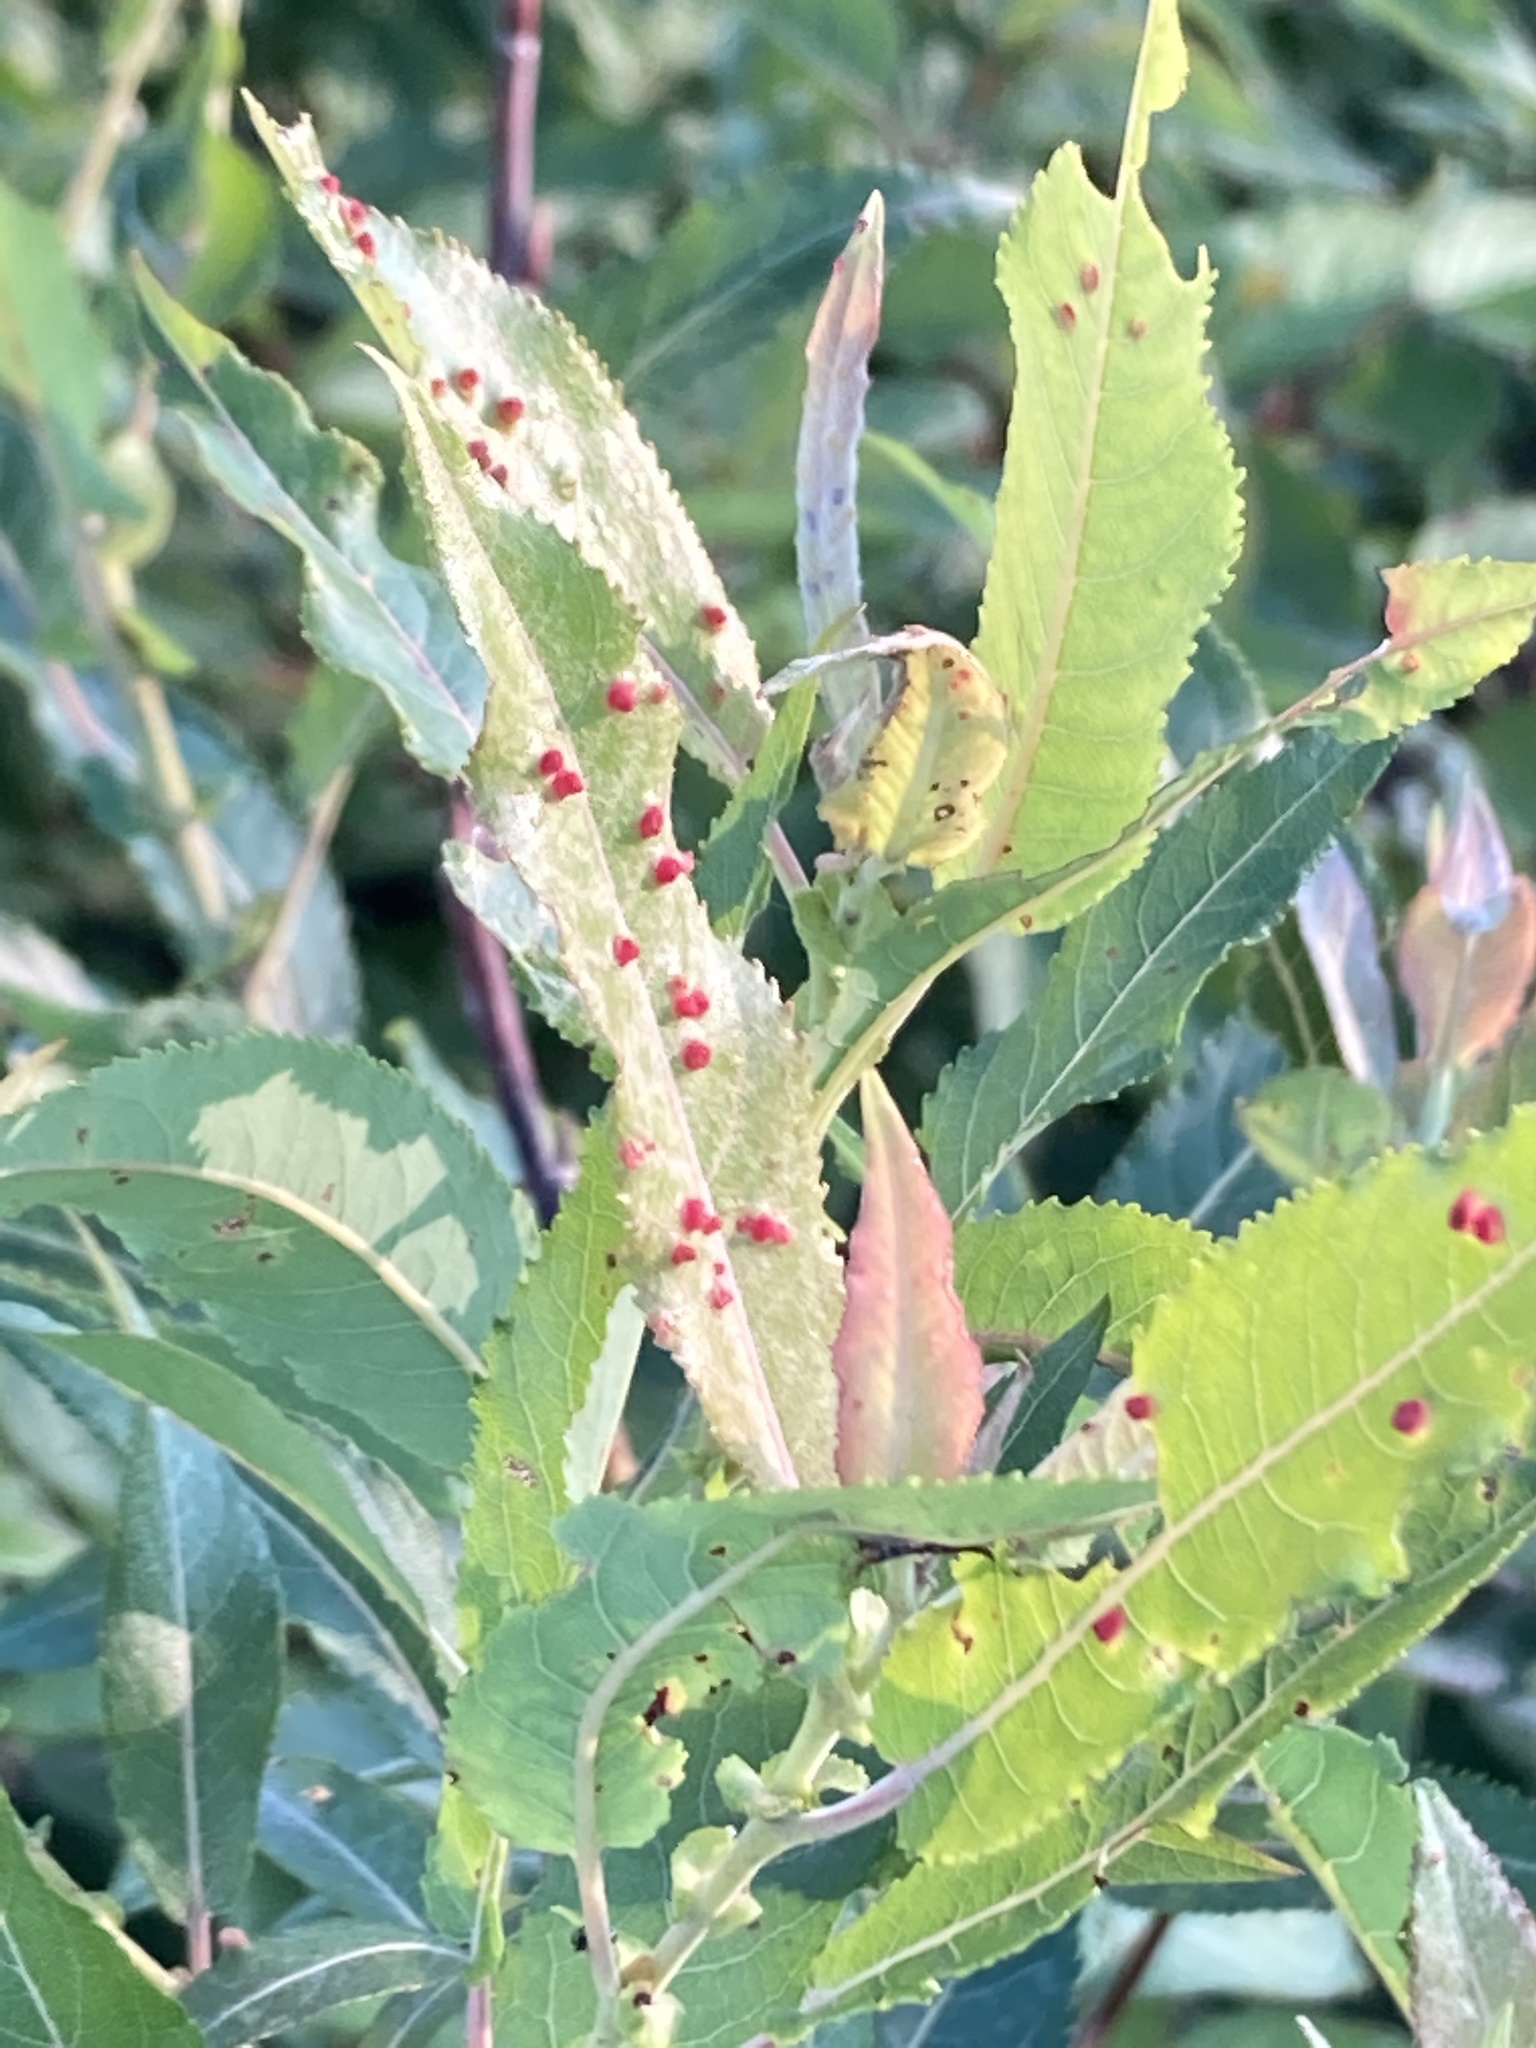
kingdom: Animalia
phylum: Arthropoda
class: Arachnida
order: Trombidiformes
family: Eriophyidae
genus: Aculus
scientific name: Aculus tetanothrix
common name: Willow bead gall mite
